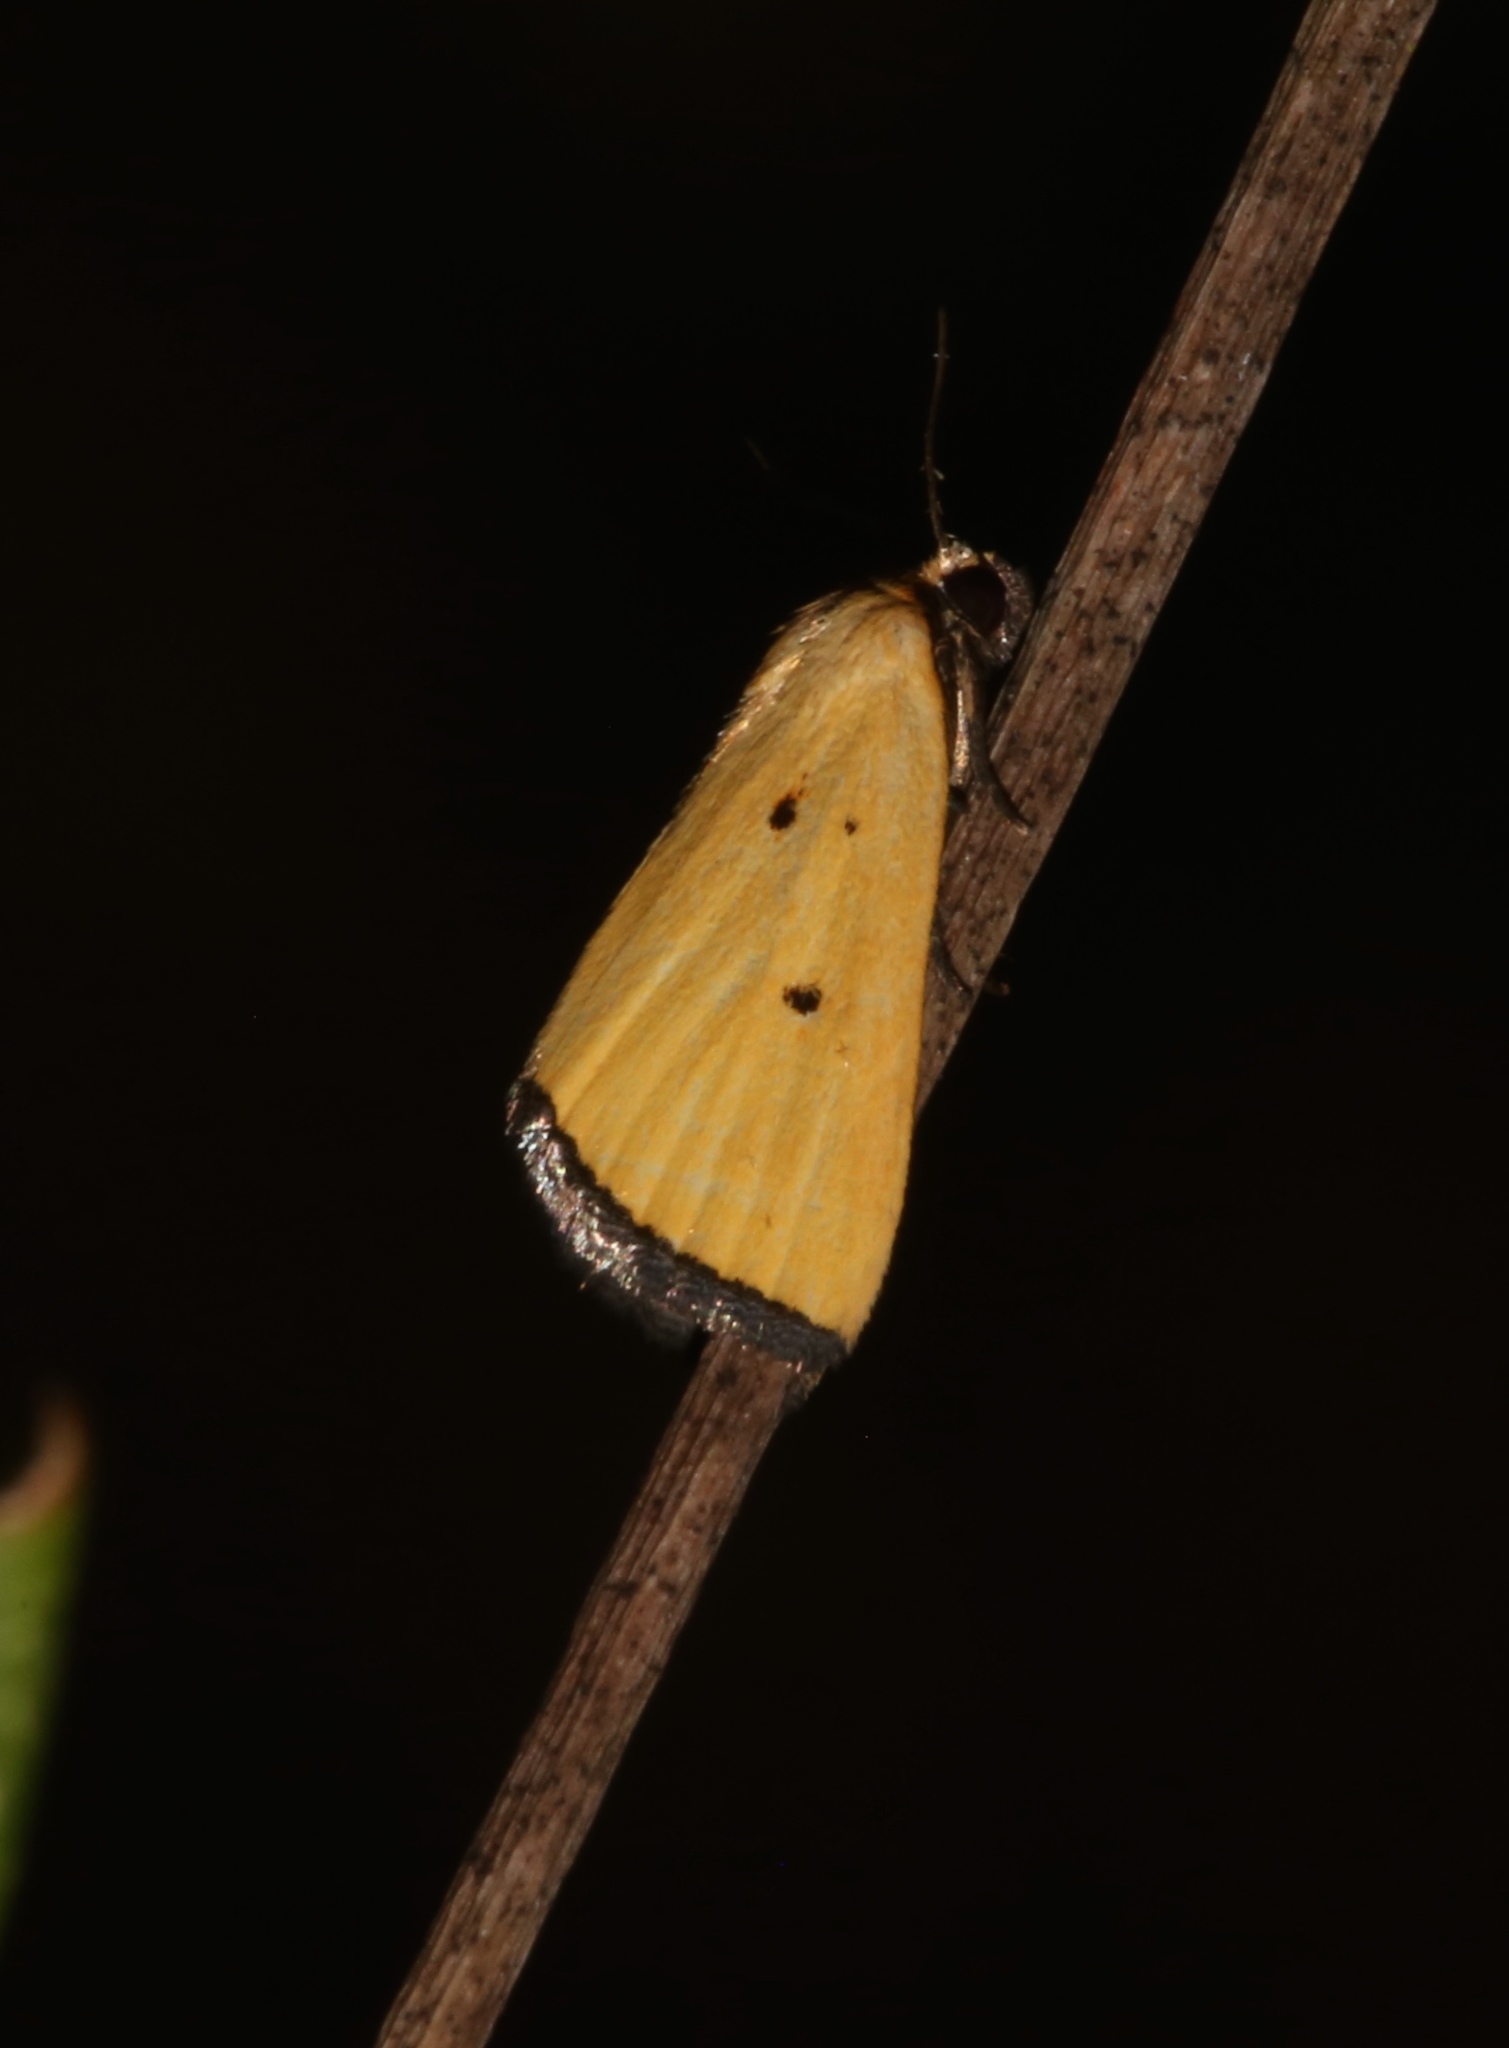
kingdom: Animalia
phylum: Arthropoda
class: Insecta
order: Lepidoptera
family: Noctuidae
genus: Marimatha
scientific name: Marimatha nigrofimbria
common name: Black-bordered lemon moth
